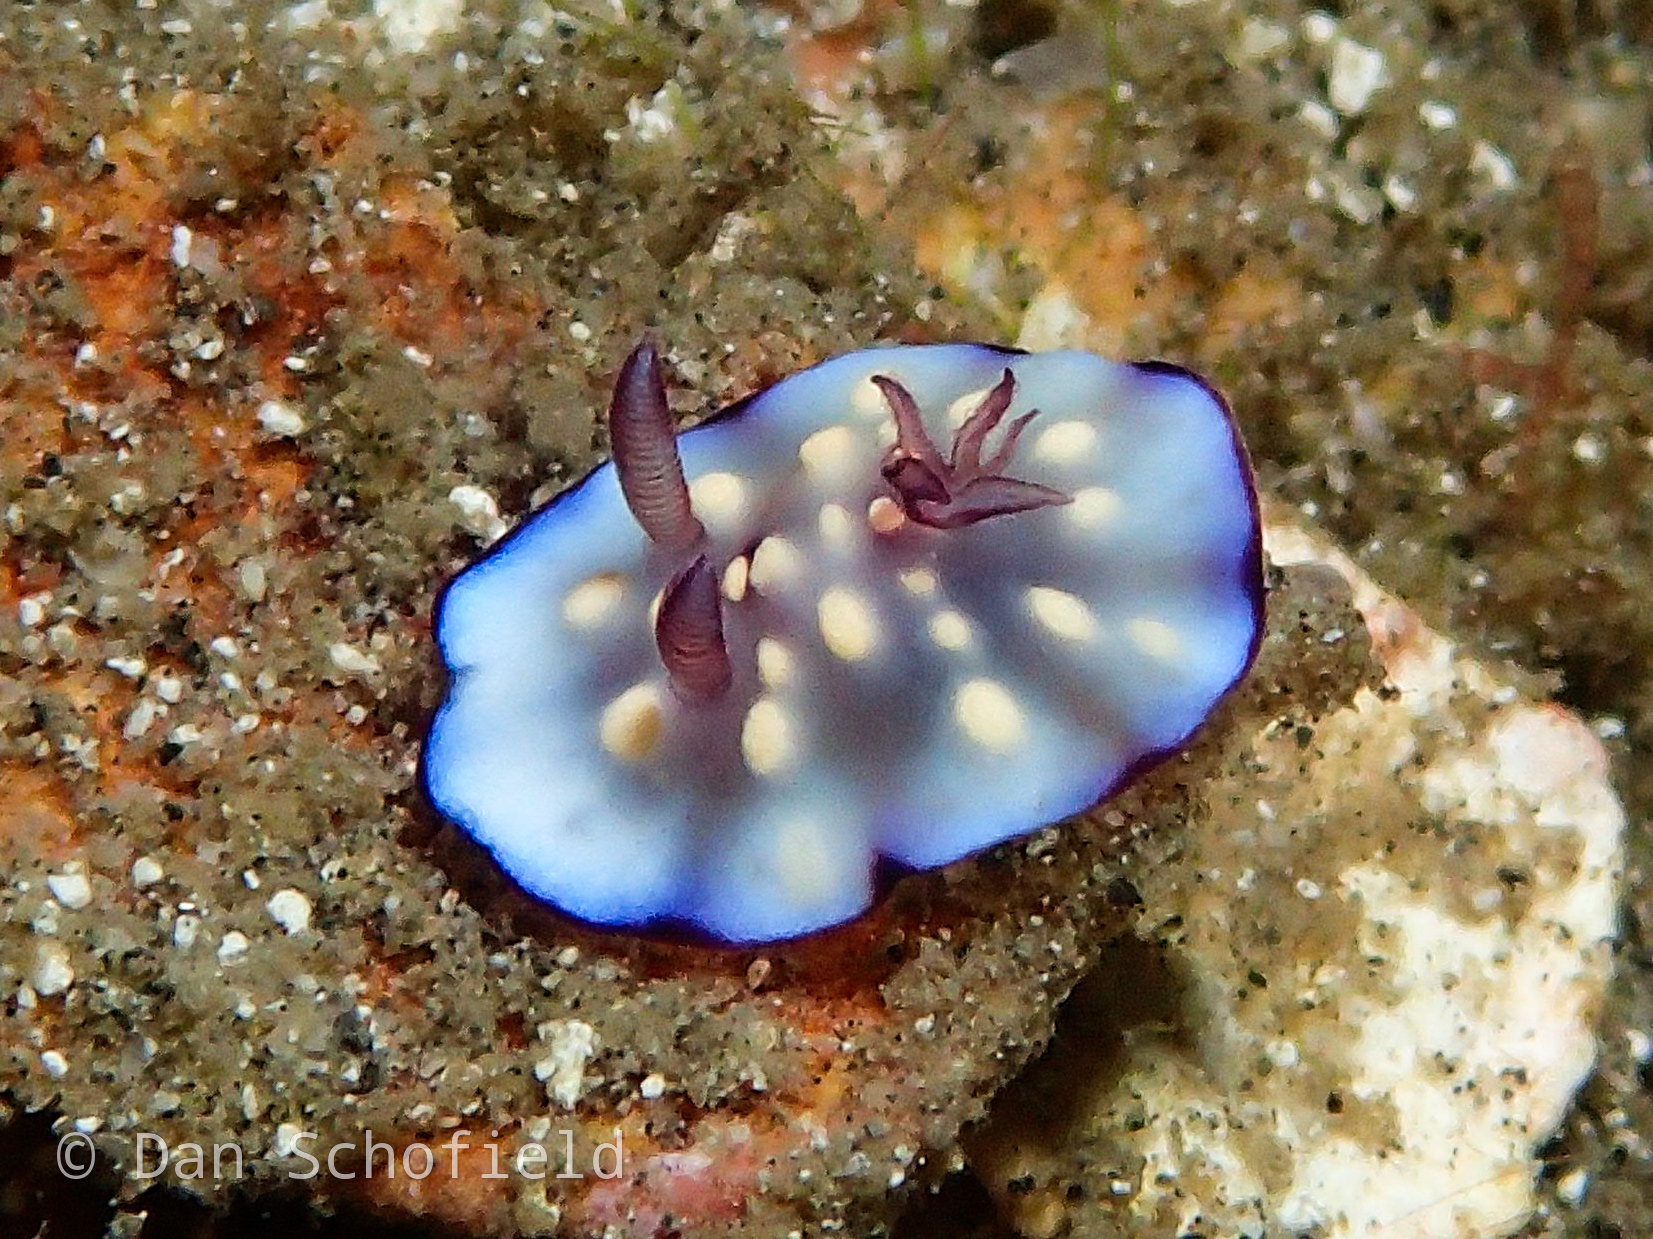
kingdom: Animalia
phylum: Mollusca
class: Gastropoda
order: Nudibranchia
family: Chromodorididae
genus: Goniobranchus
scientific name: Goniobranchus hintuanensis
